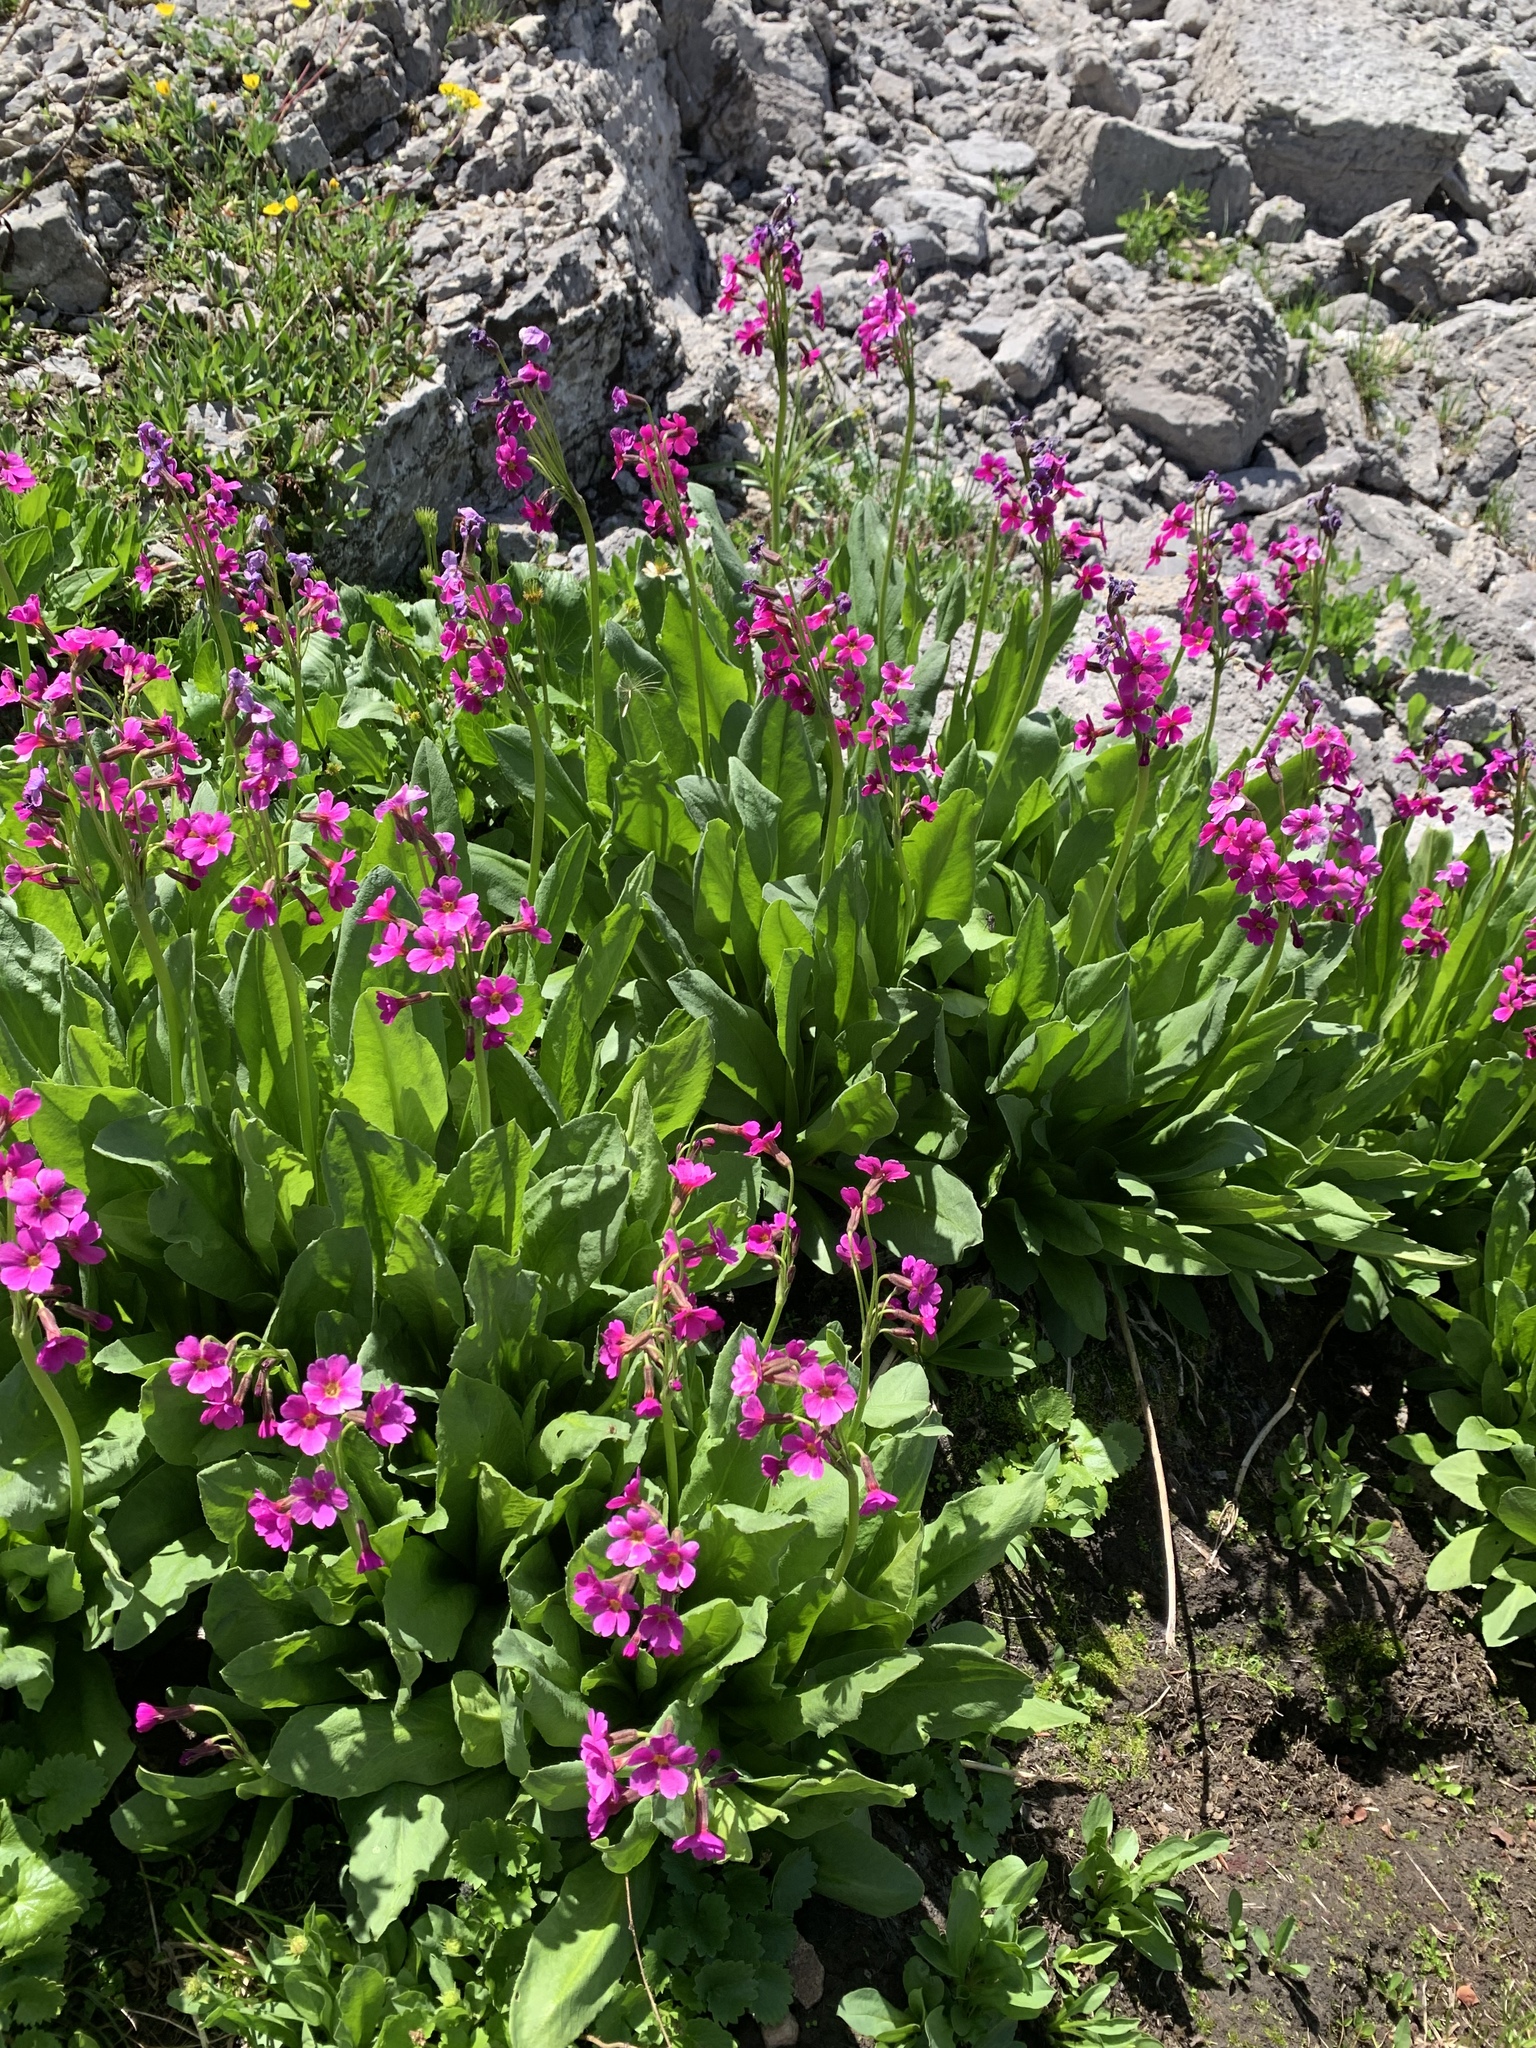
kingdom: Plantae
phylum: Tracheophyta
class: Magnoliopsida
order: Ericales
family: Primulaceae
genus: Primula
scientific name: Primula parryi
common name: Parry's primrose
